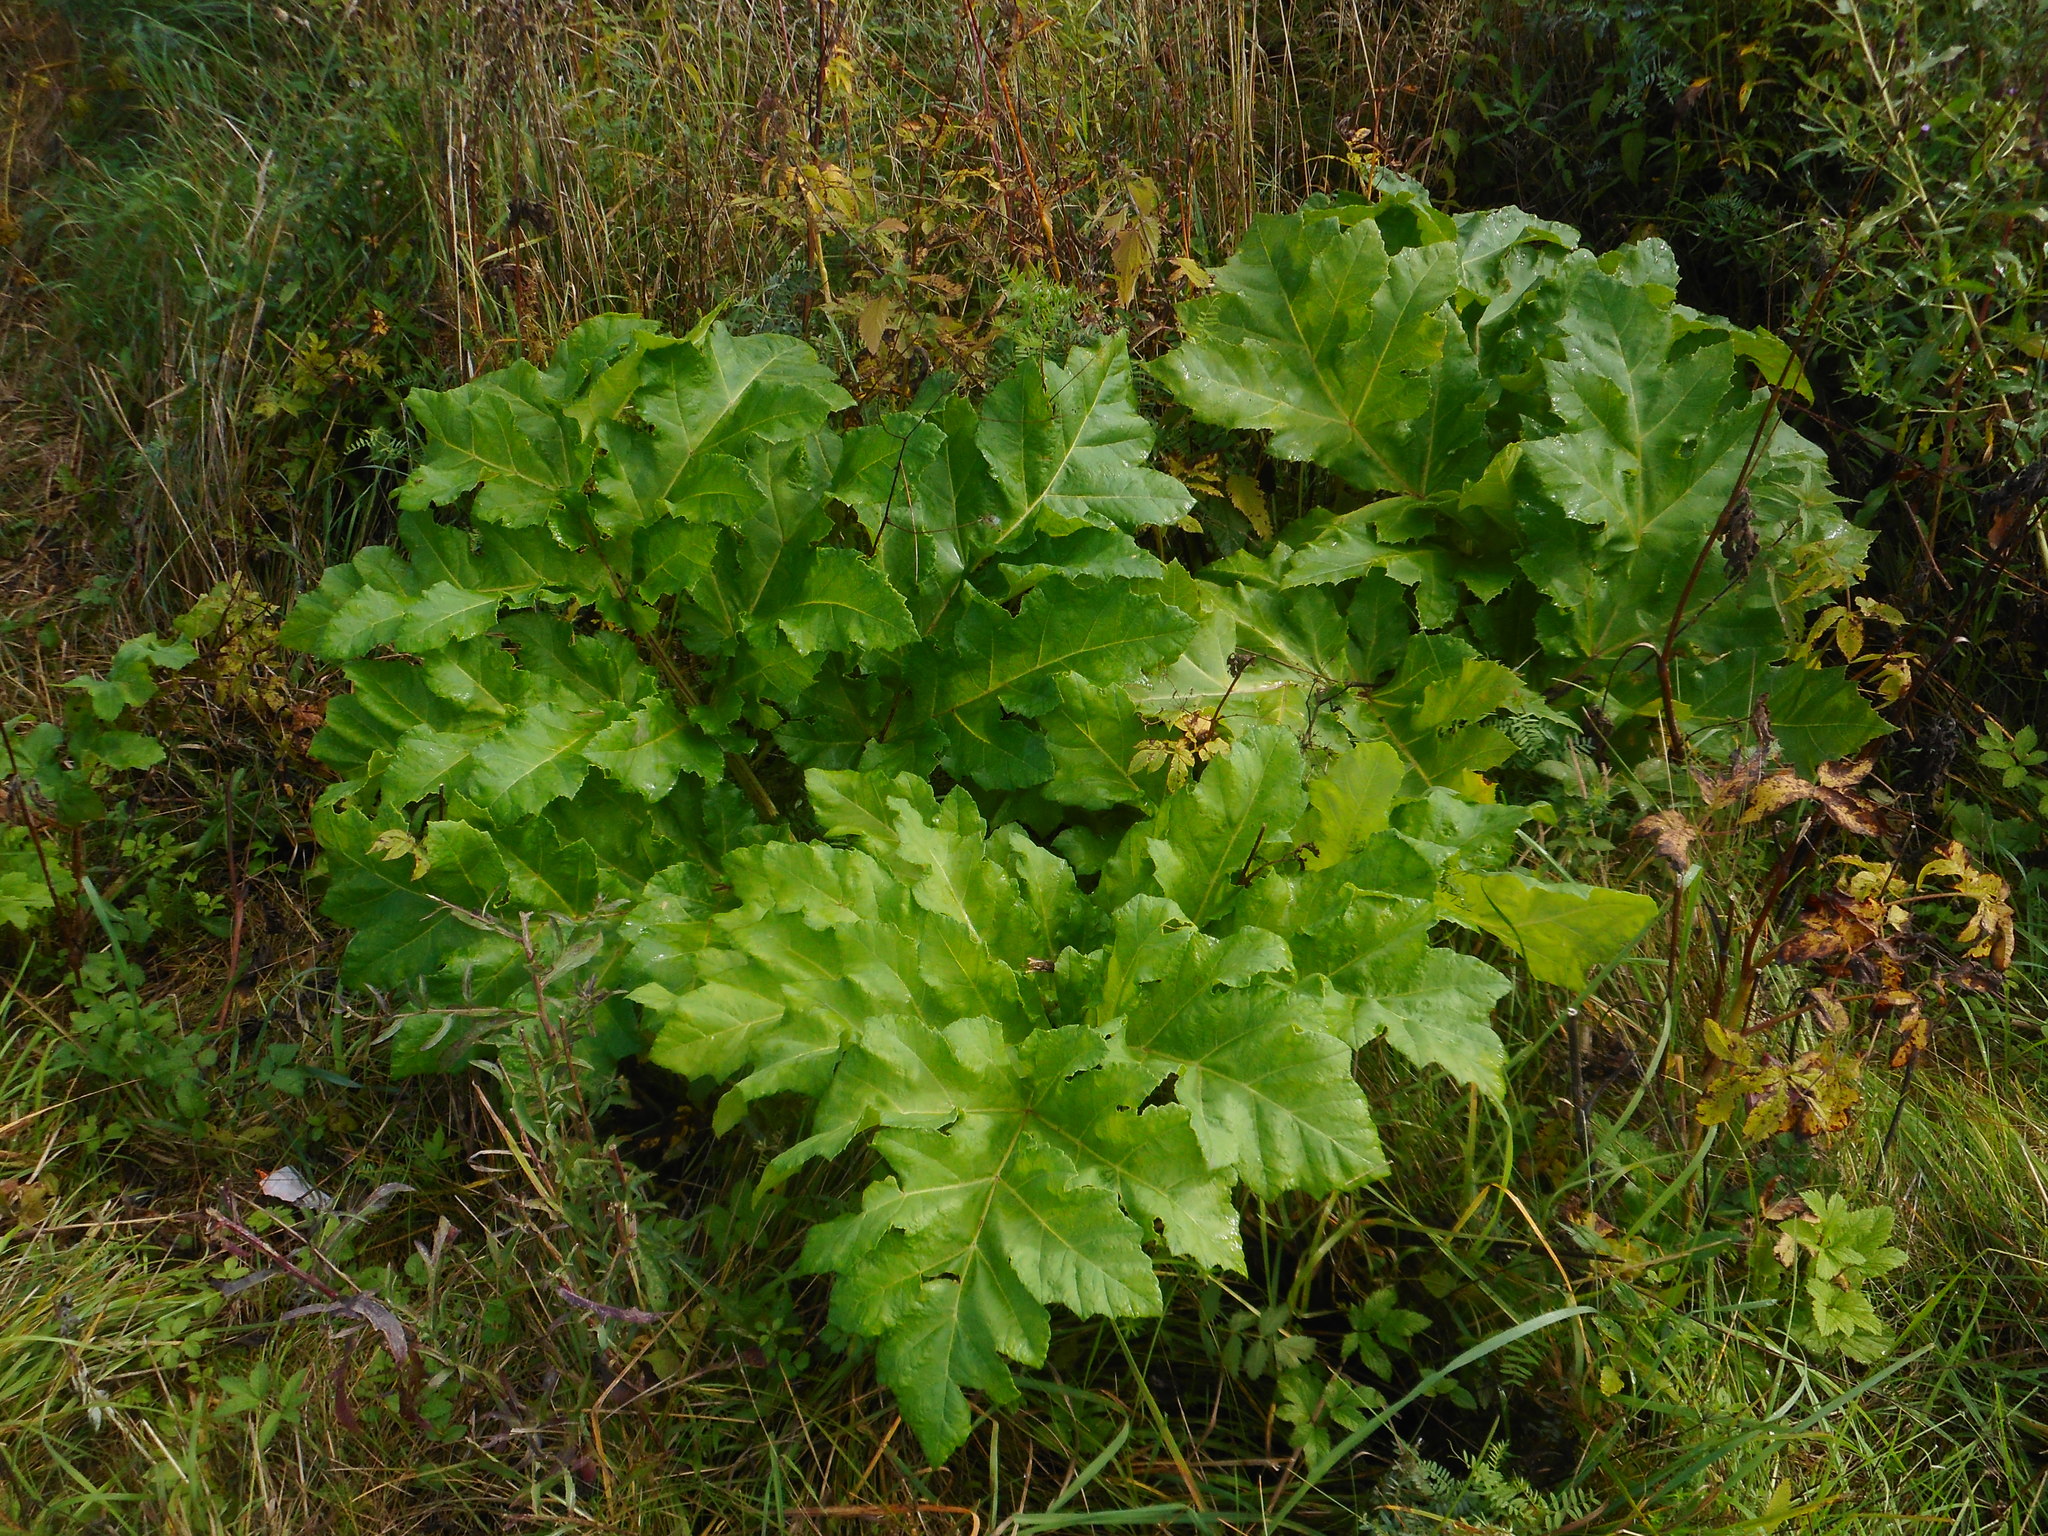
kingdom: Plantae
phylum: Tracheophyta
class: Magnoliopsida
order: Apiales
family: Apiaceae
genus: Heracleum
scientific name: Heracleum sosnowskyi
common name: Sosnowsky's hogweed
